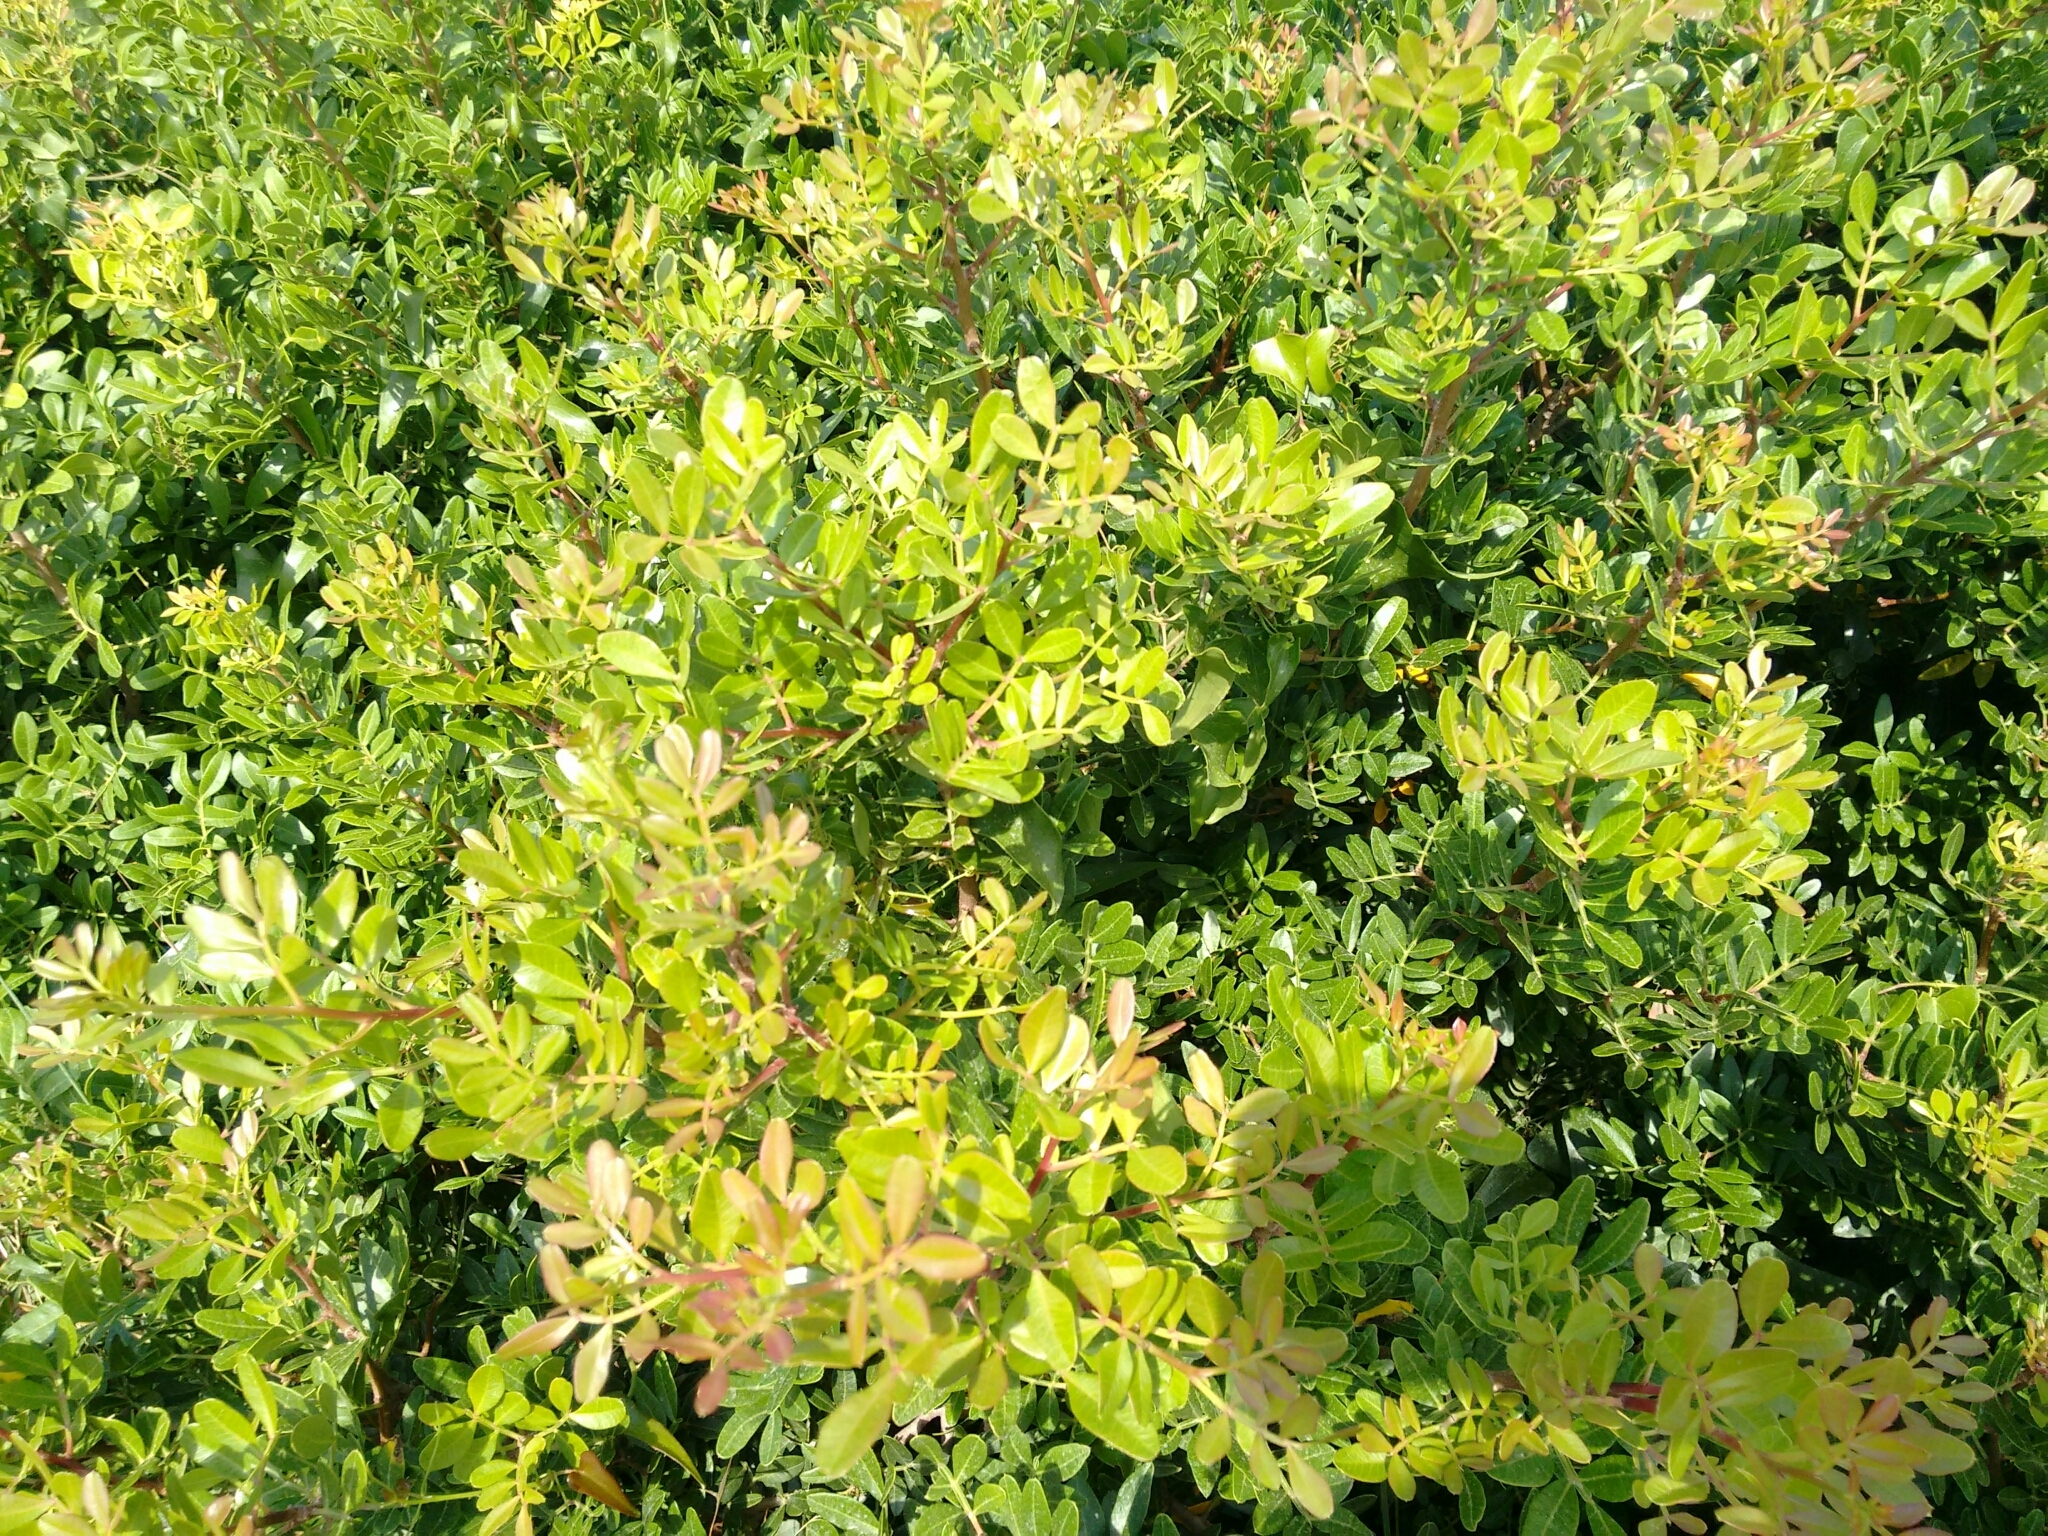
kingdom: Plantae
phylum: Tracheophyta
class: Magnoliopsida
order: Sapindales
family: Anacardiaceae
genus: Pistacia
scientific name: Pistacia lentiscus
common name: Lentisk
